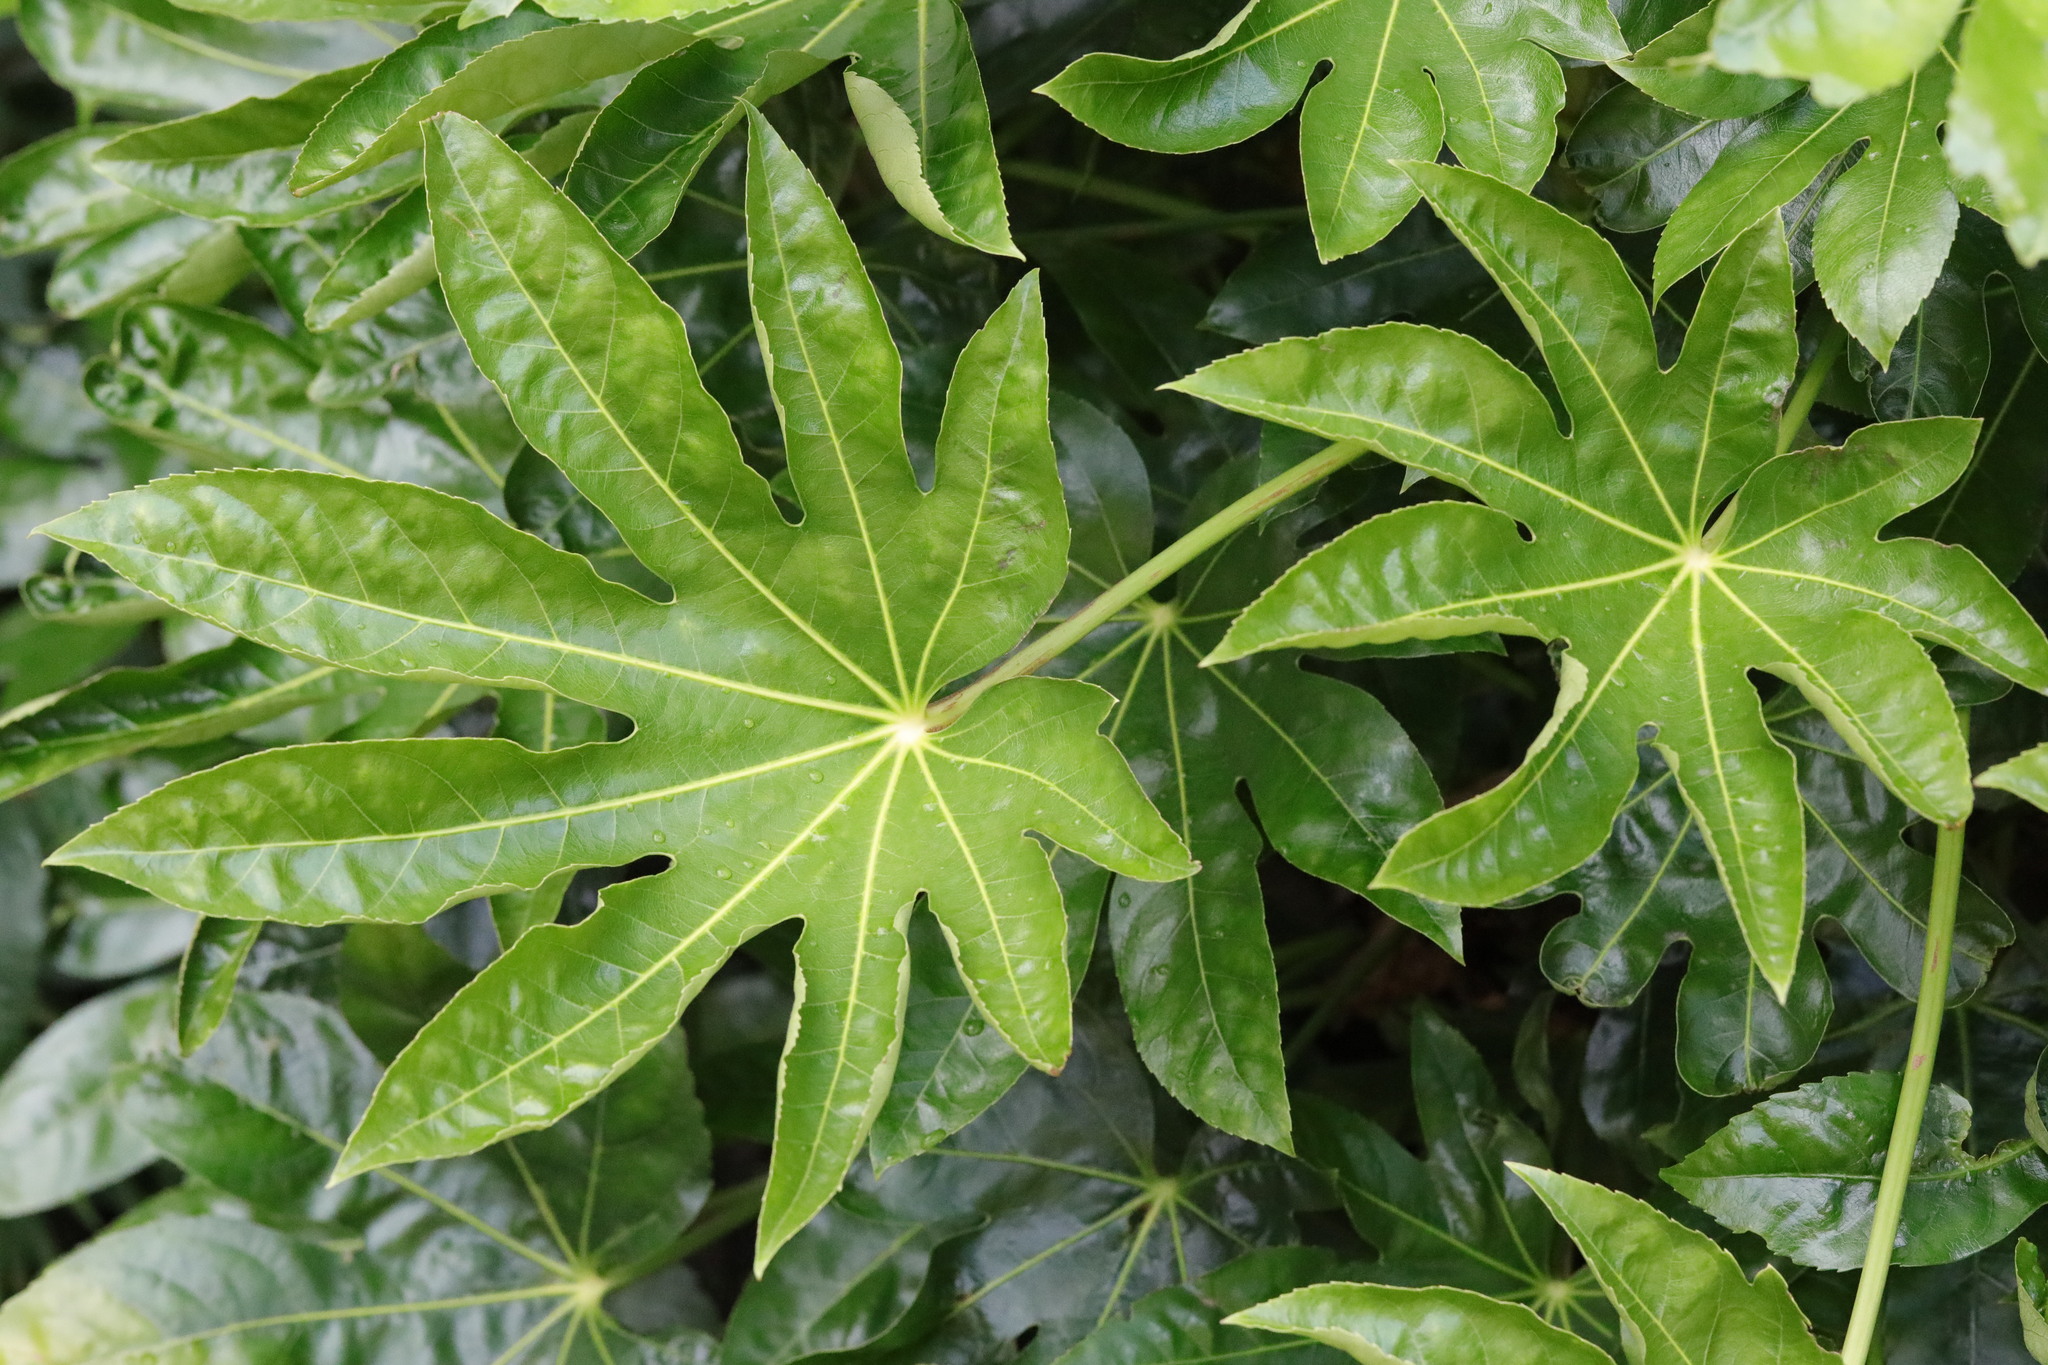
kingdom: Plantae
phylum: Tracheophyta
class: Magnoliopsida
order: Apiales
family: Araliaceae
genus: Fatsia
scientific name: Fatsia japonica
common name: Fatsia
